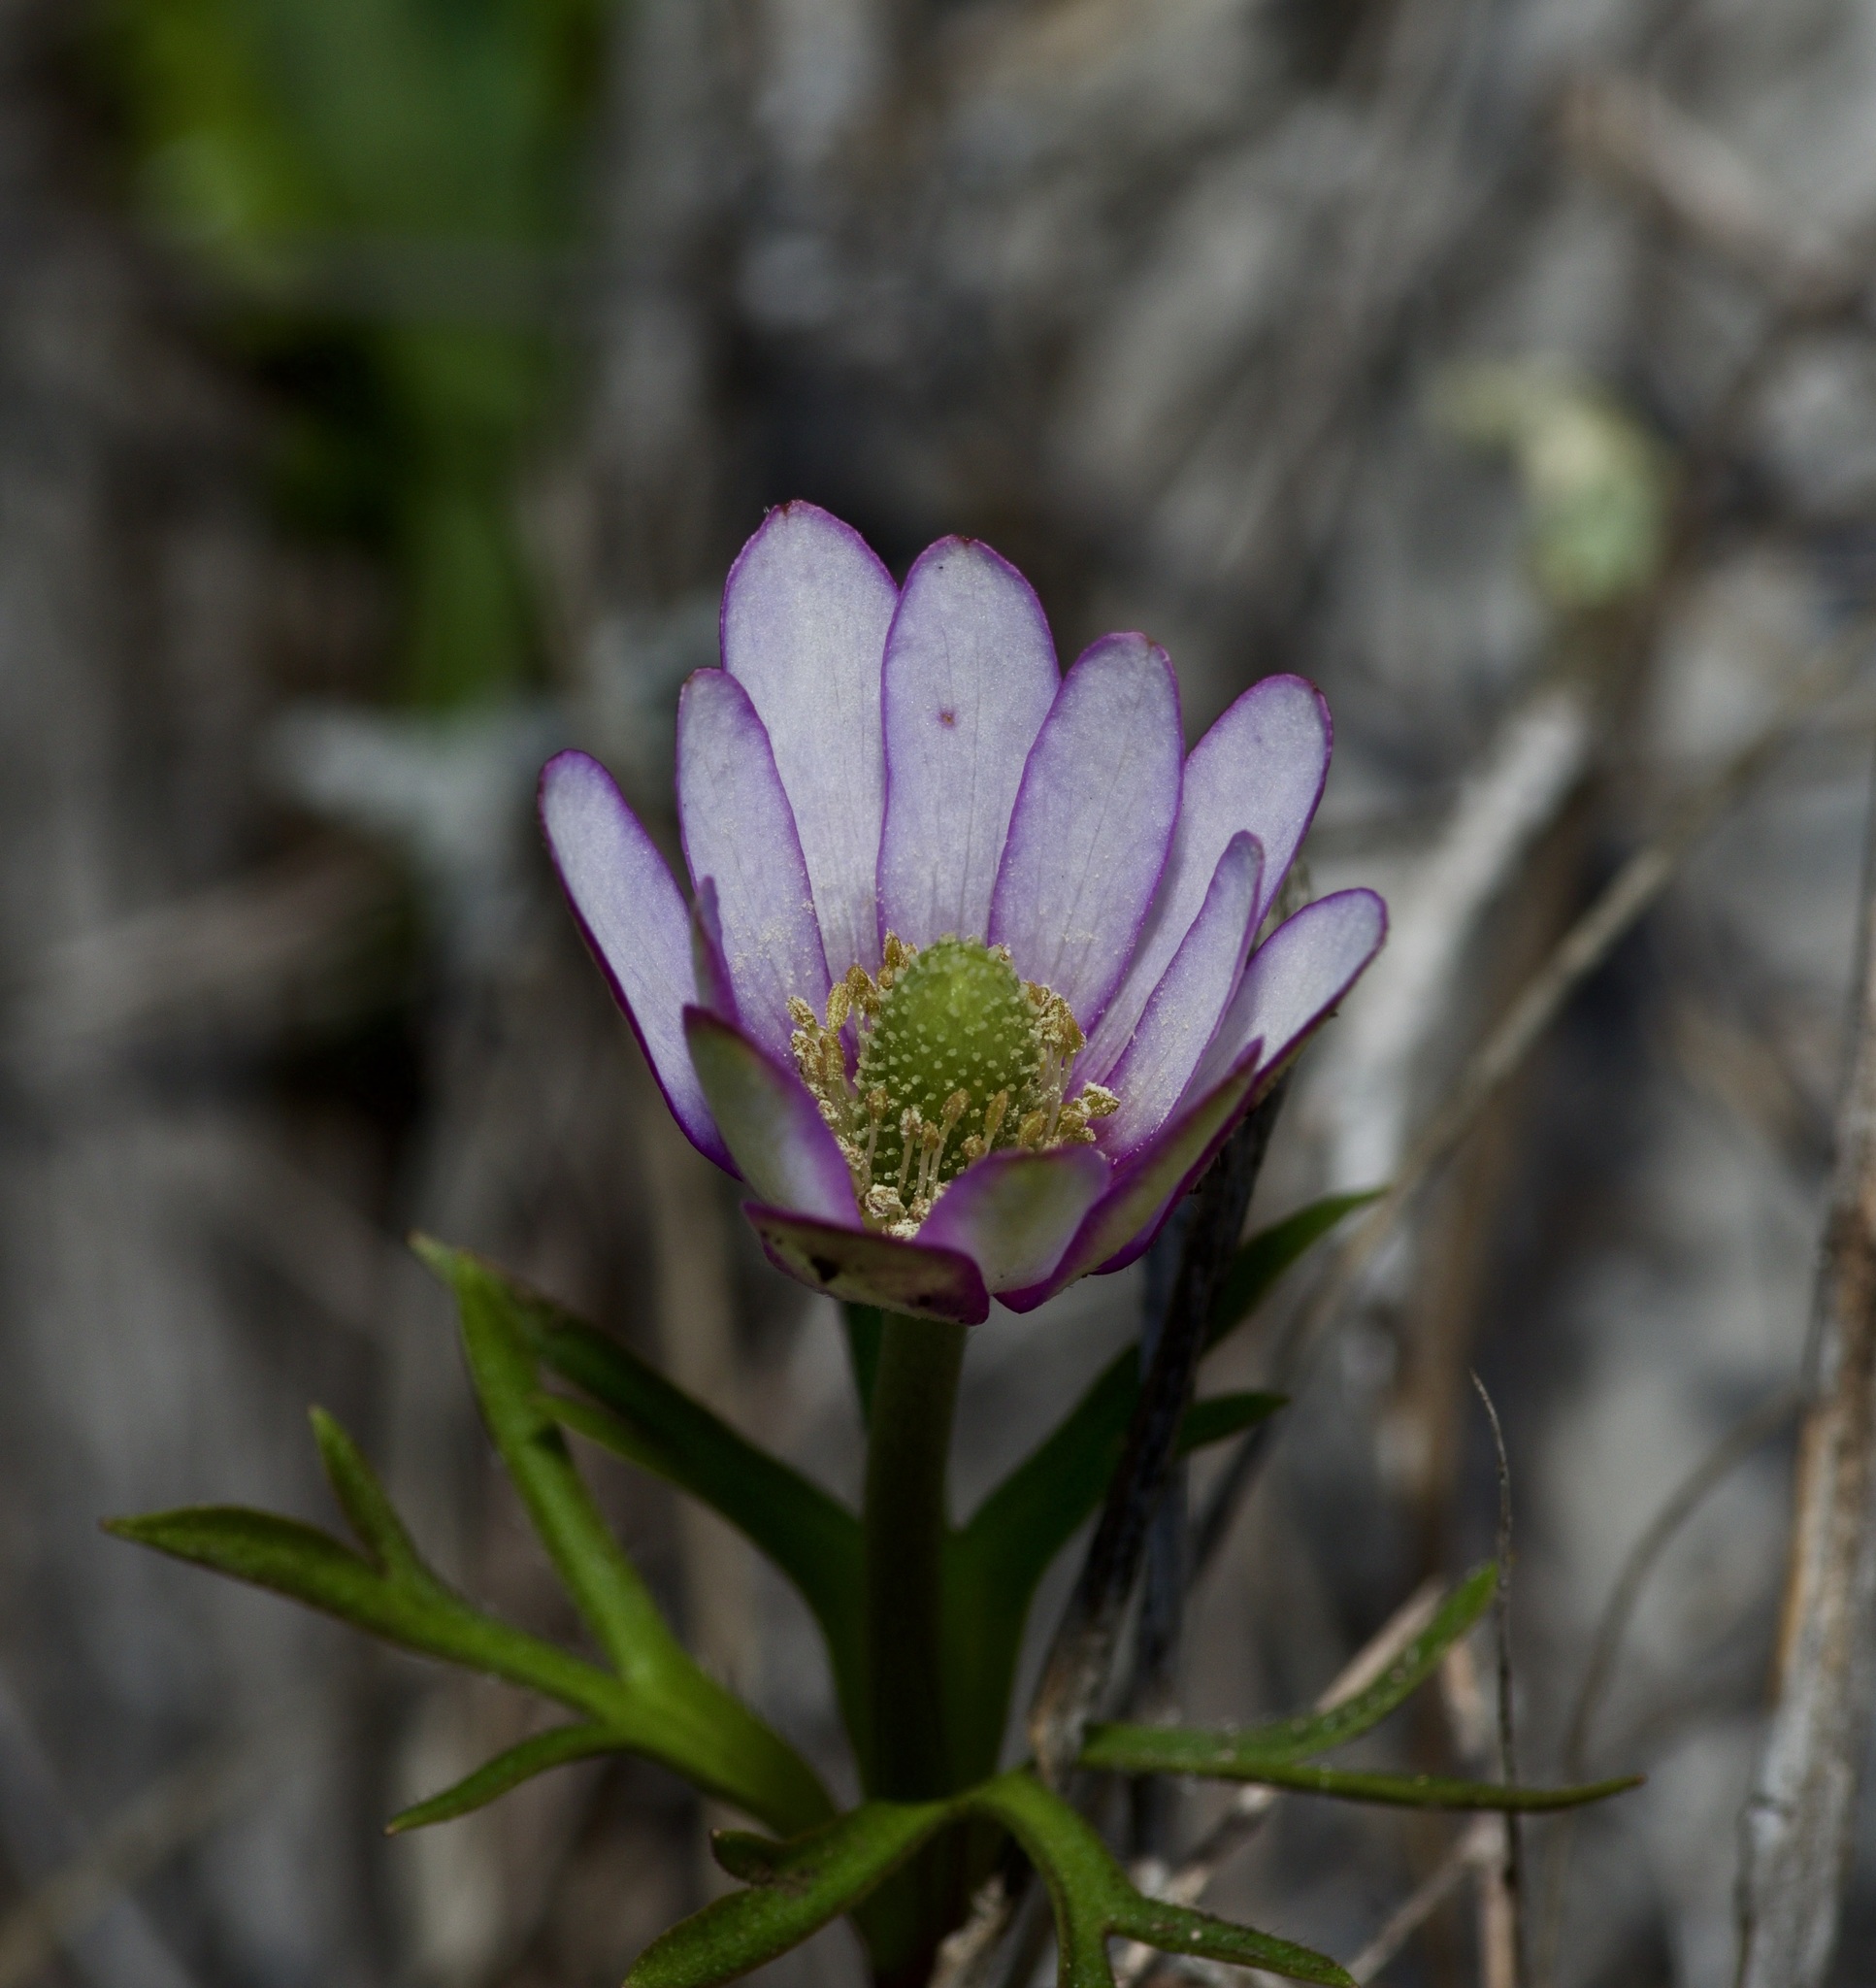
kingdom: Plantae
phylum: Tracheophyta
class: Magnoliopsida
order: Ranunculales
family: Ranunculaceae
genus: Anemone
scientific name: Anemone berlandieri
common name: Ten-petal anemone
